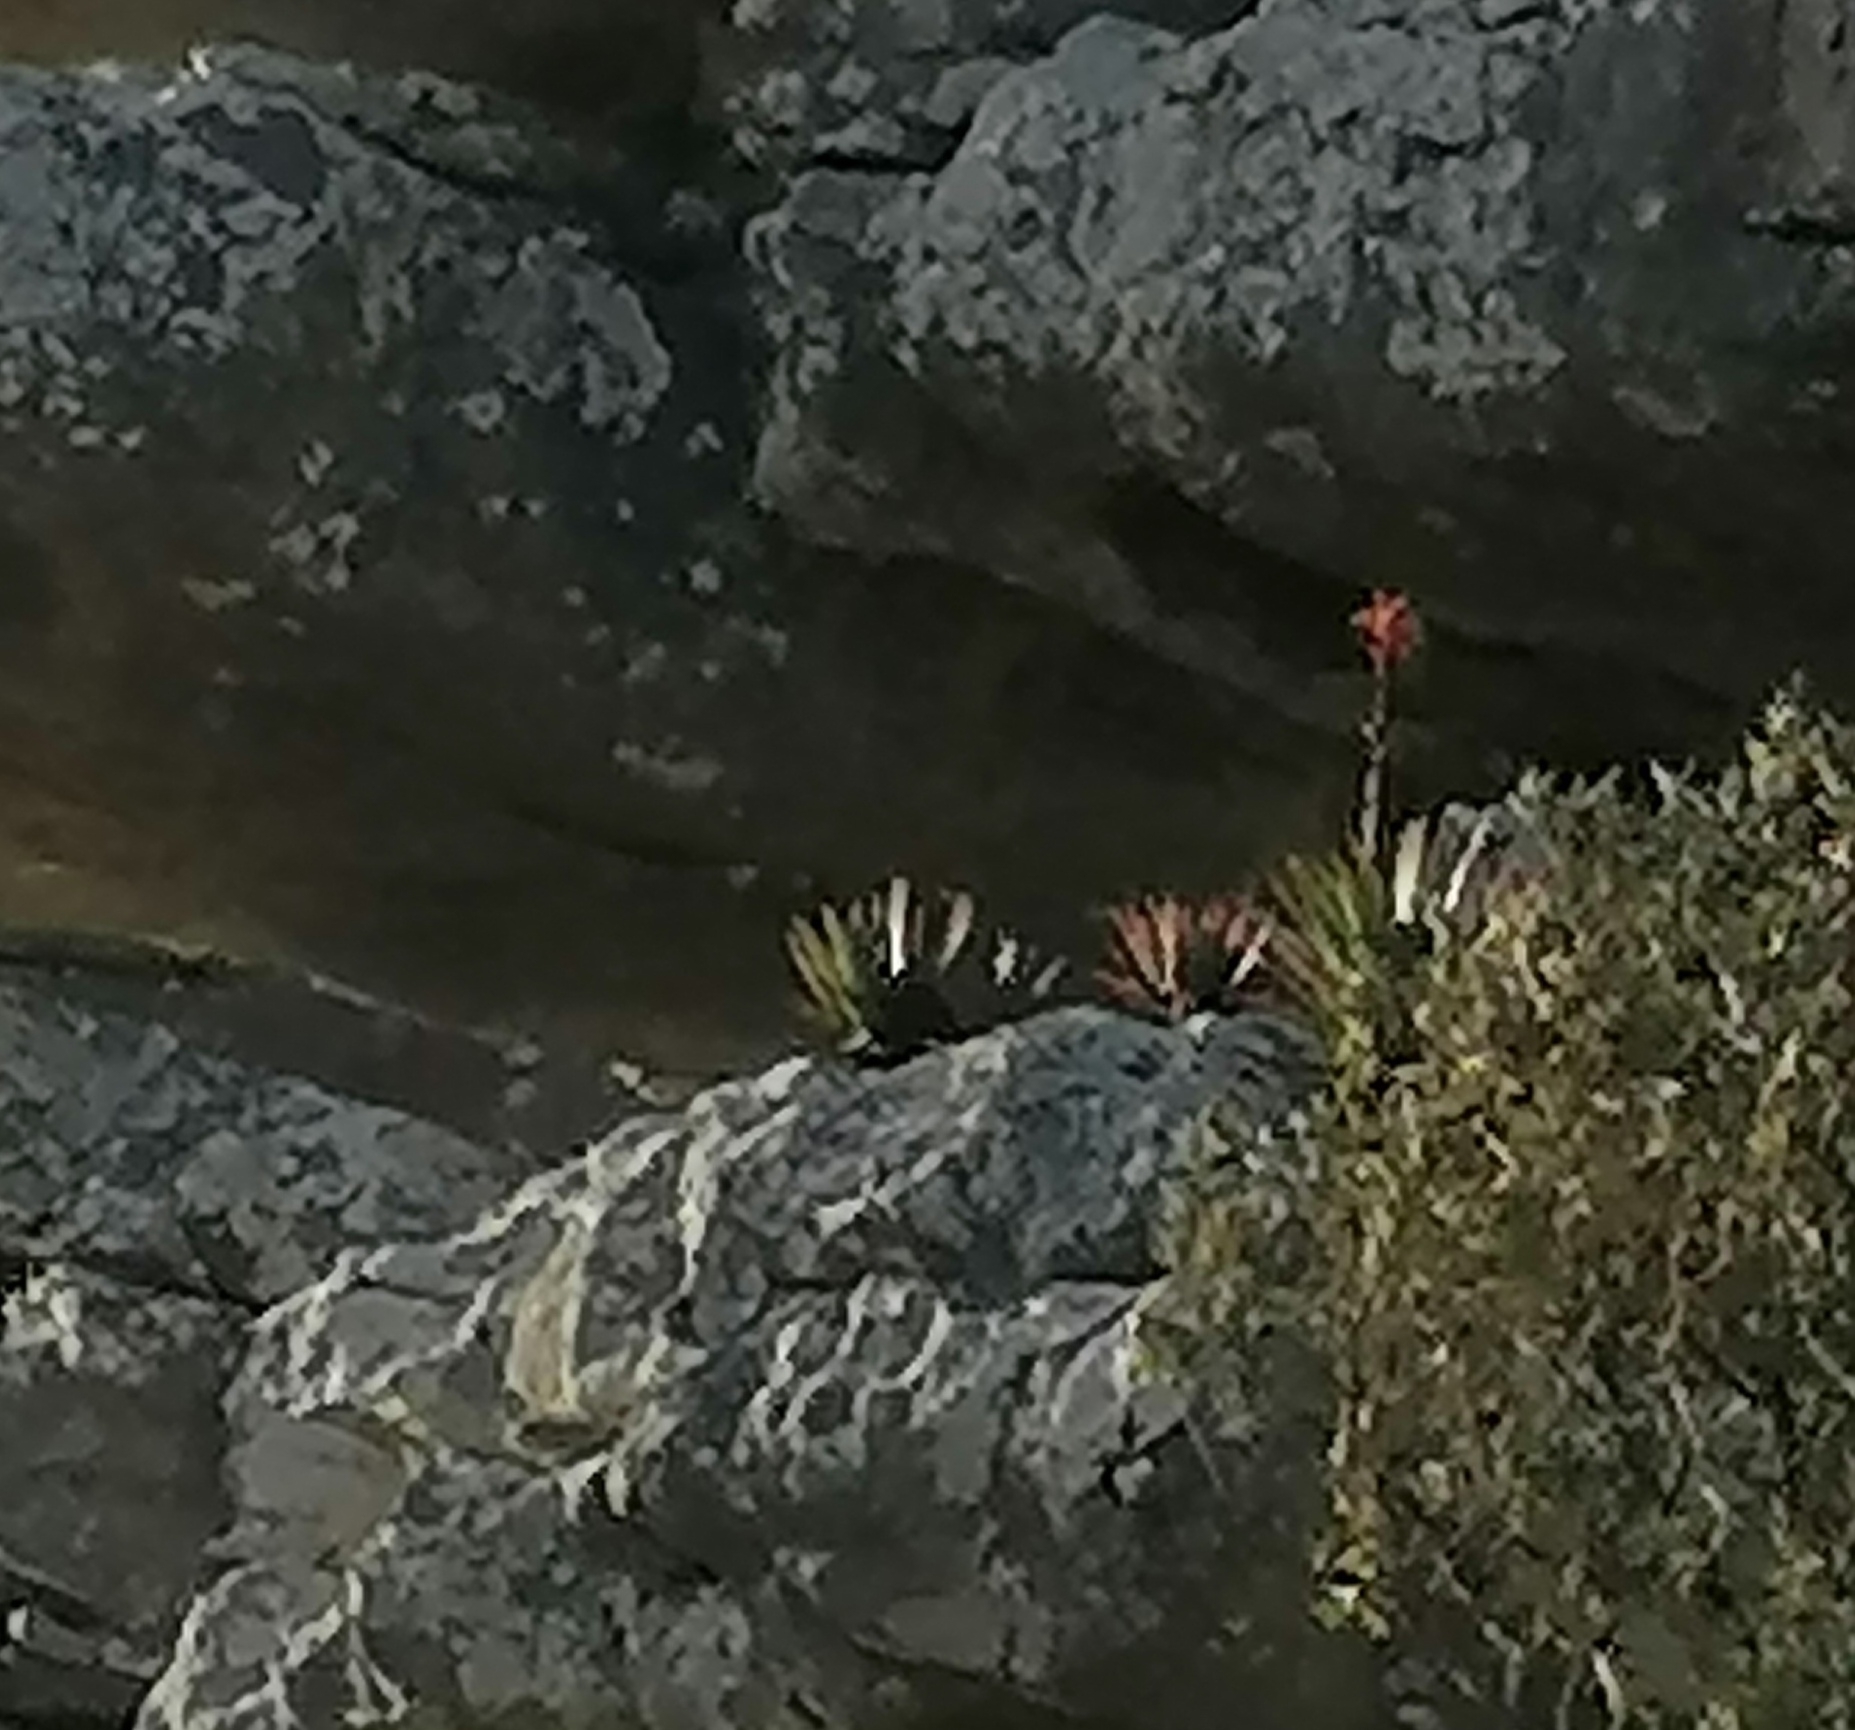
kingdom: Plantae
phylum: Tracheophyta
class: Liliopsida
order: Asparagales
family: Asphodelaceae
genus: Aloe
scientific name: Aloe succotrina
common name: Bombay aloe
